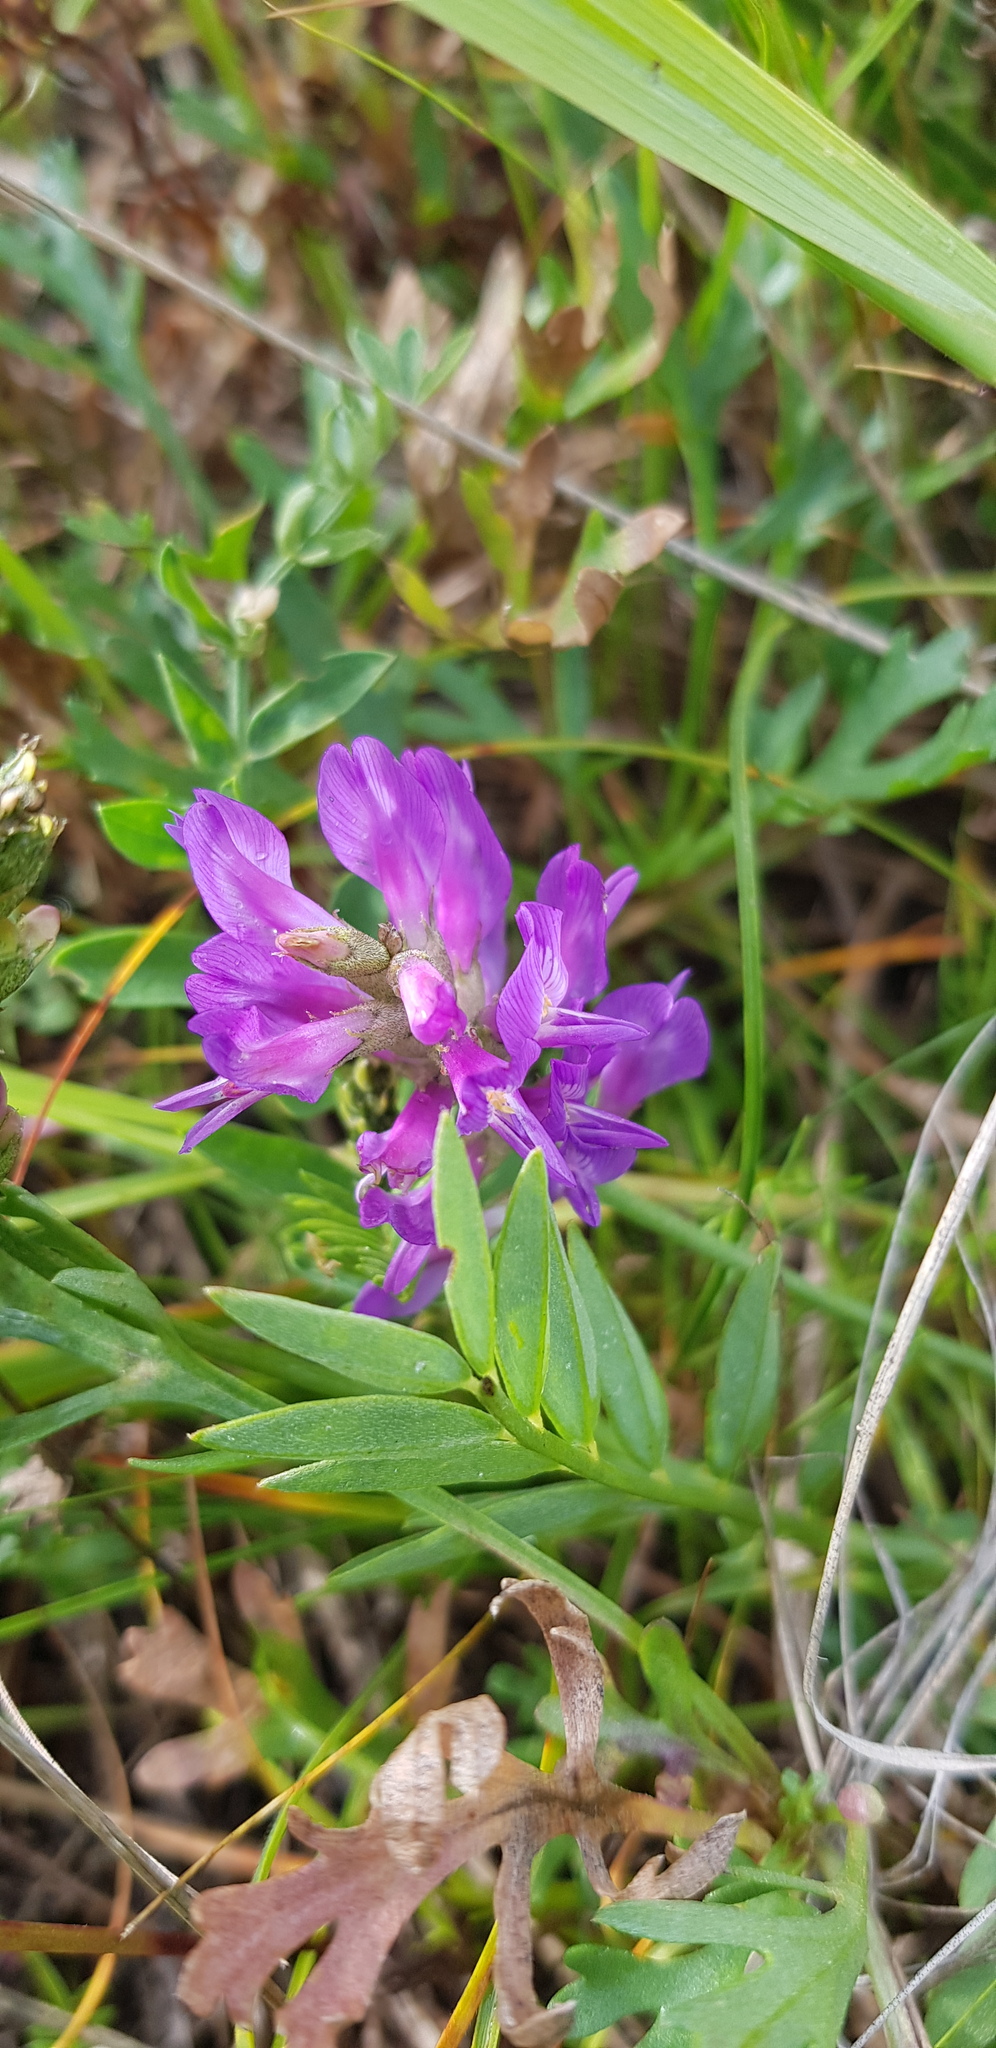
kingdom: Plantae
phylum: Tracheophyta
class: Magnoliopsida
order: Fabales
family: Fabaceae
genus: Astragalus
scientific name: Astragalus danicus
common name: Purple milk-vetch
